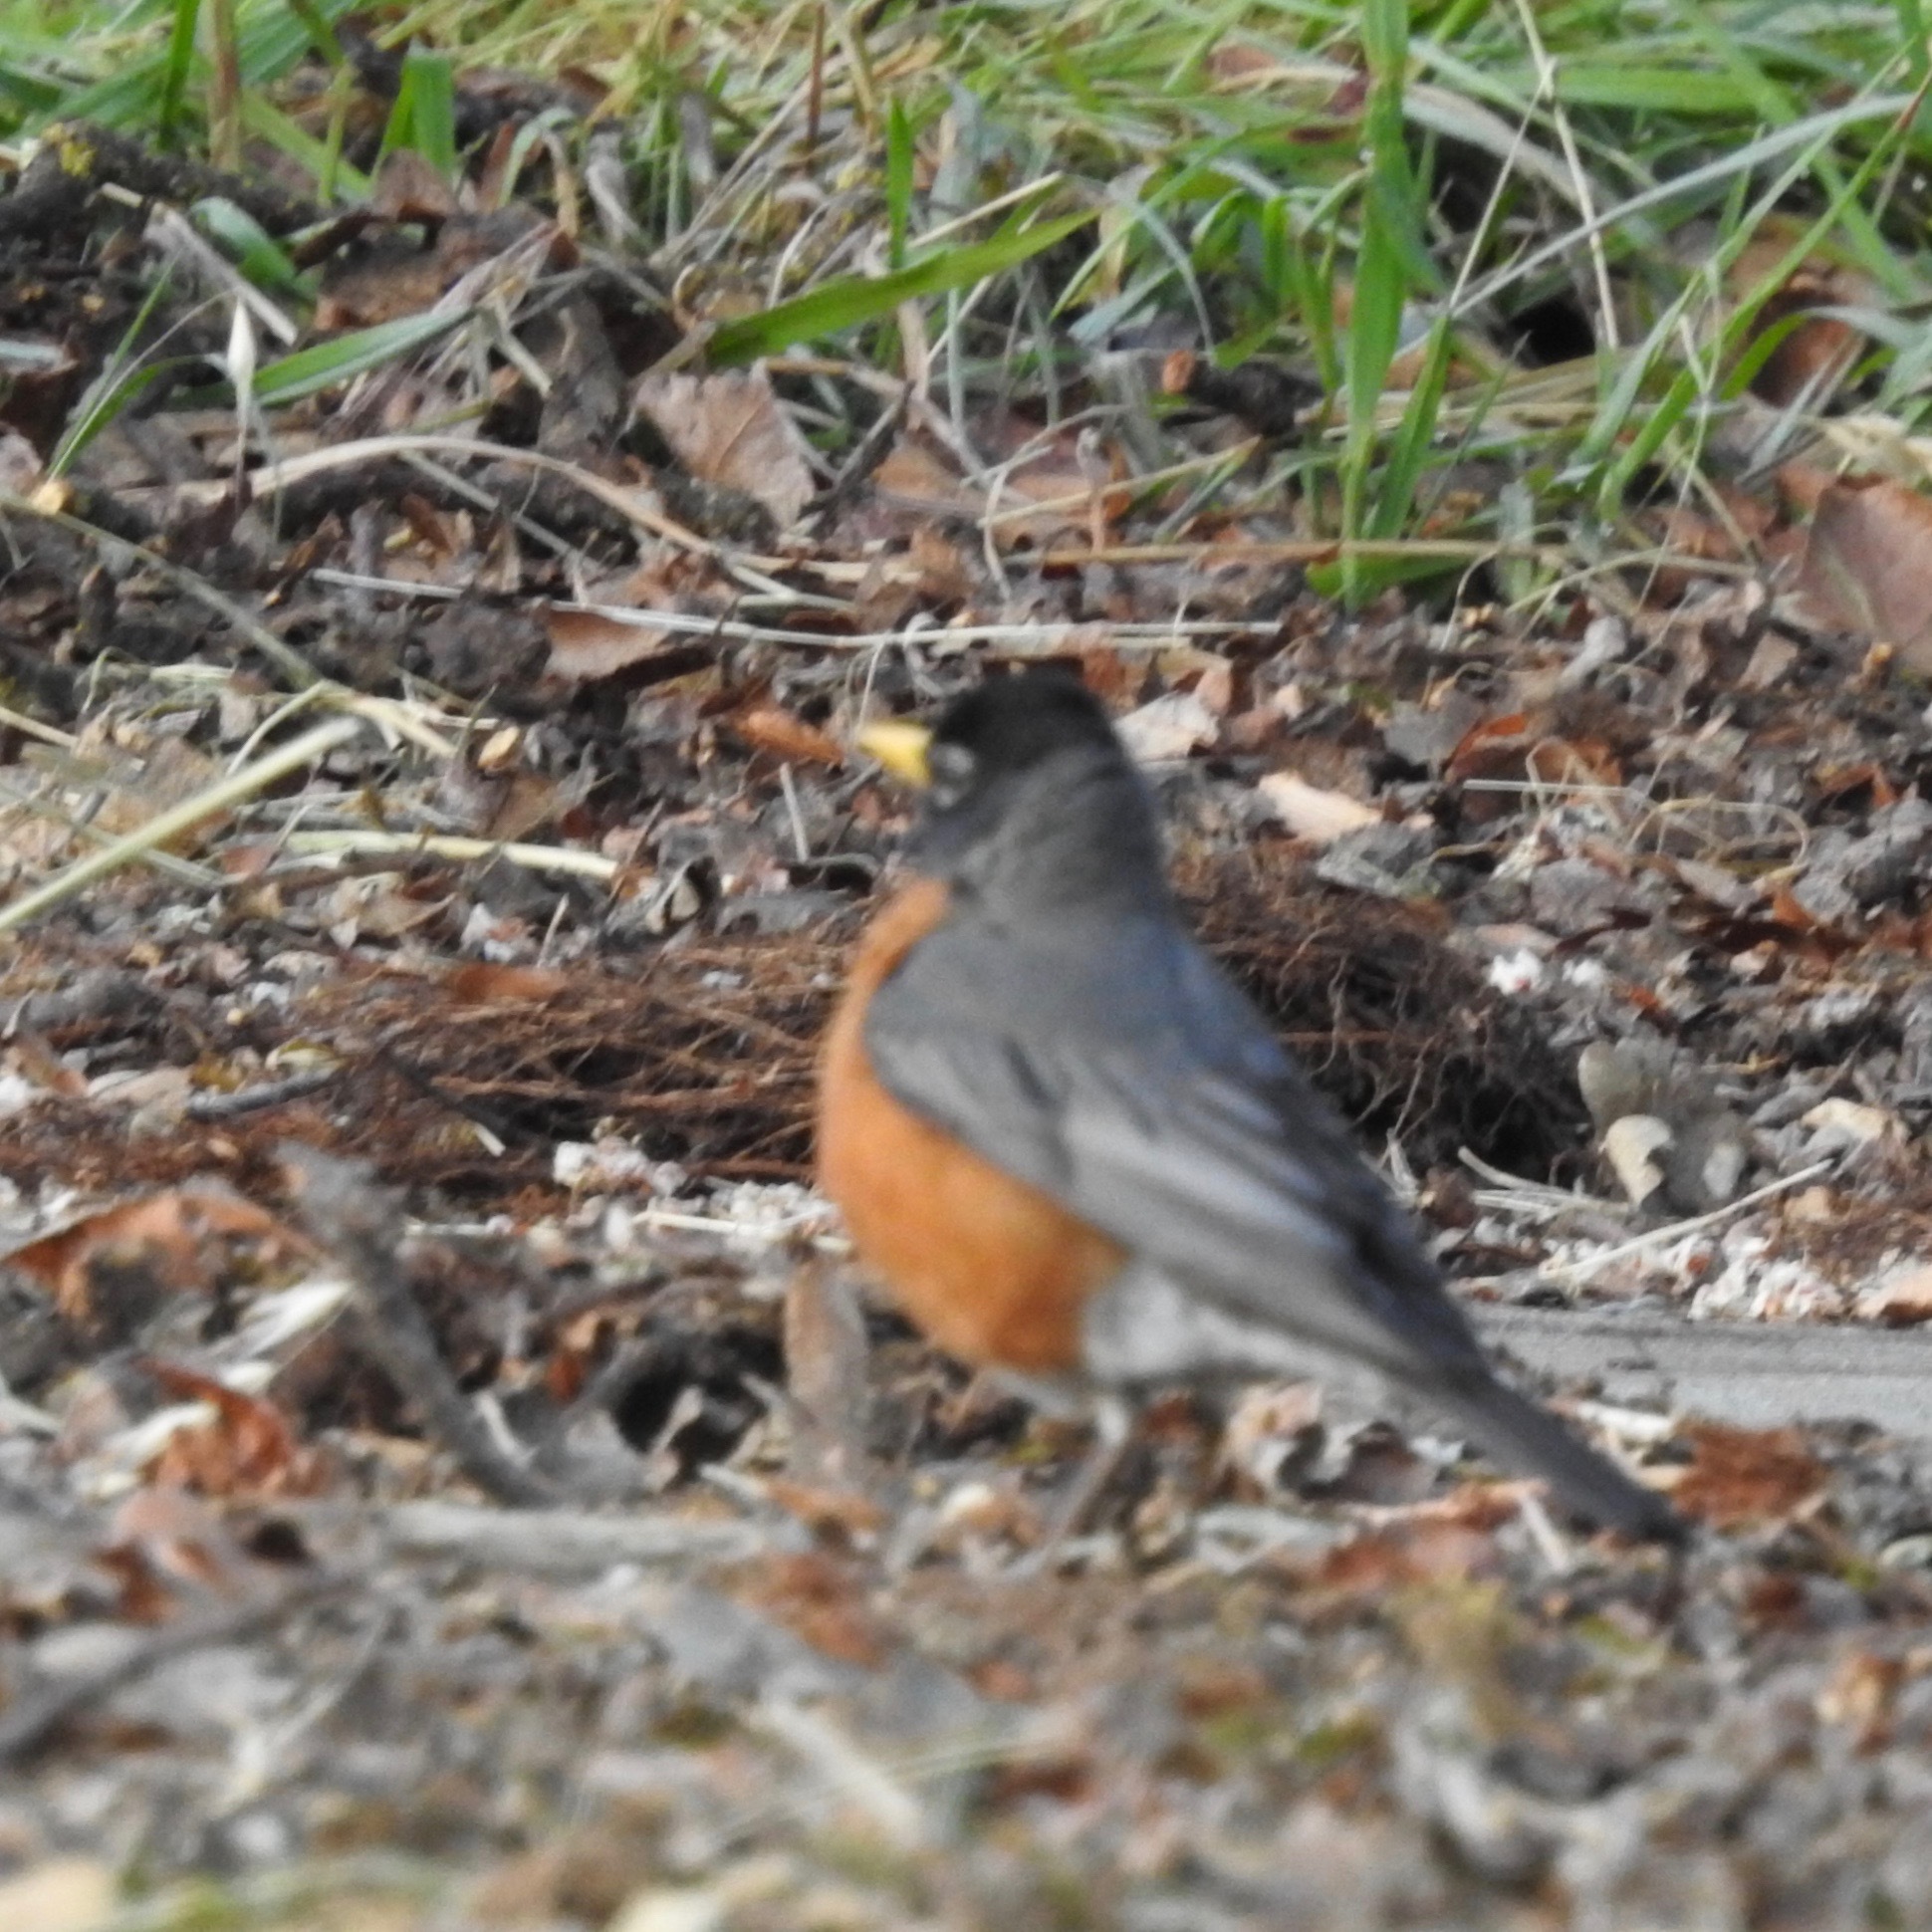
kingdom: Animalia
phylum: Chordata
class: Aves
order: Passeriformes
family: Turdidae
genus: Turdus
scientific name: Turdus migratorius
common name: American robin
